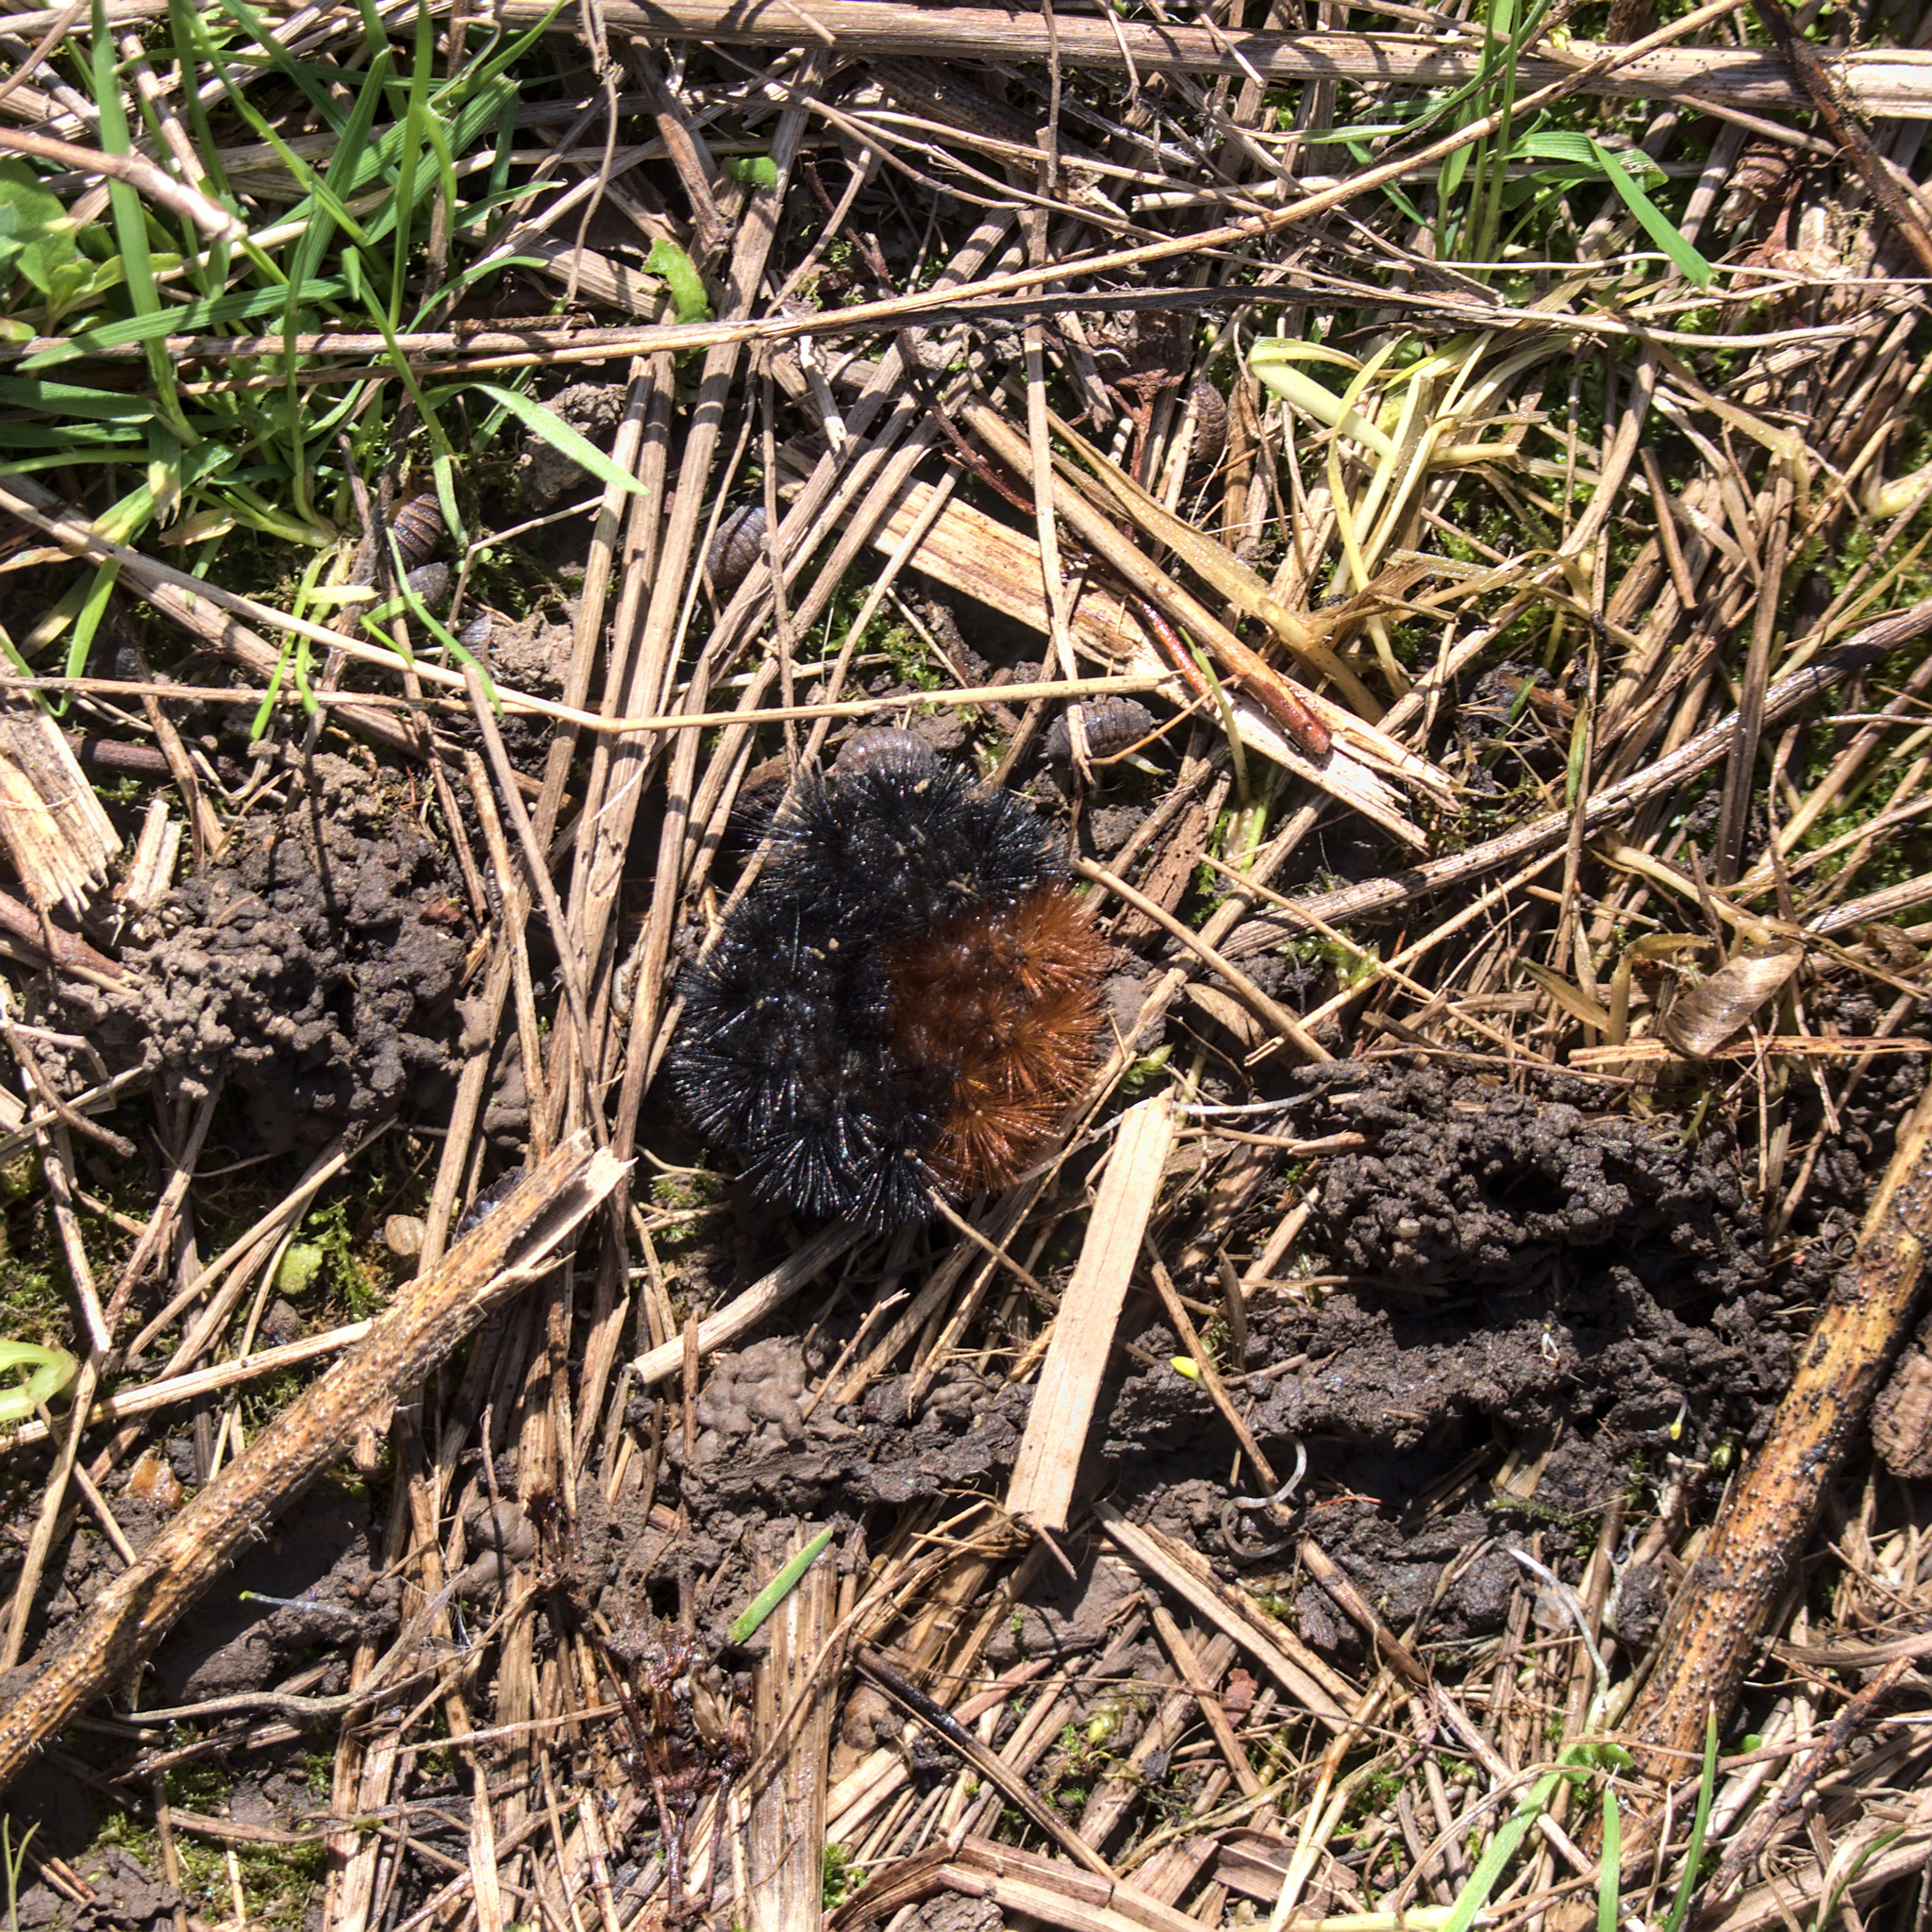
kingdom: Animalia
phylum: Arthropoda
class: Insecta
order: Lepidoptera
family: Erebidae
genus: Pyrrharctia
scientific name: Pyrrharctia isabella
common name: Isabella tiger moth
